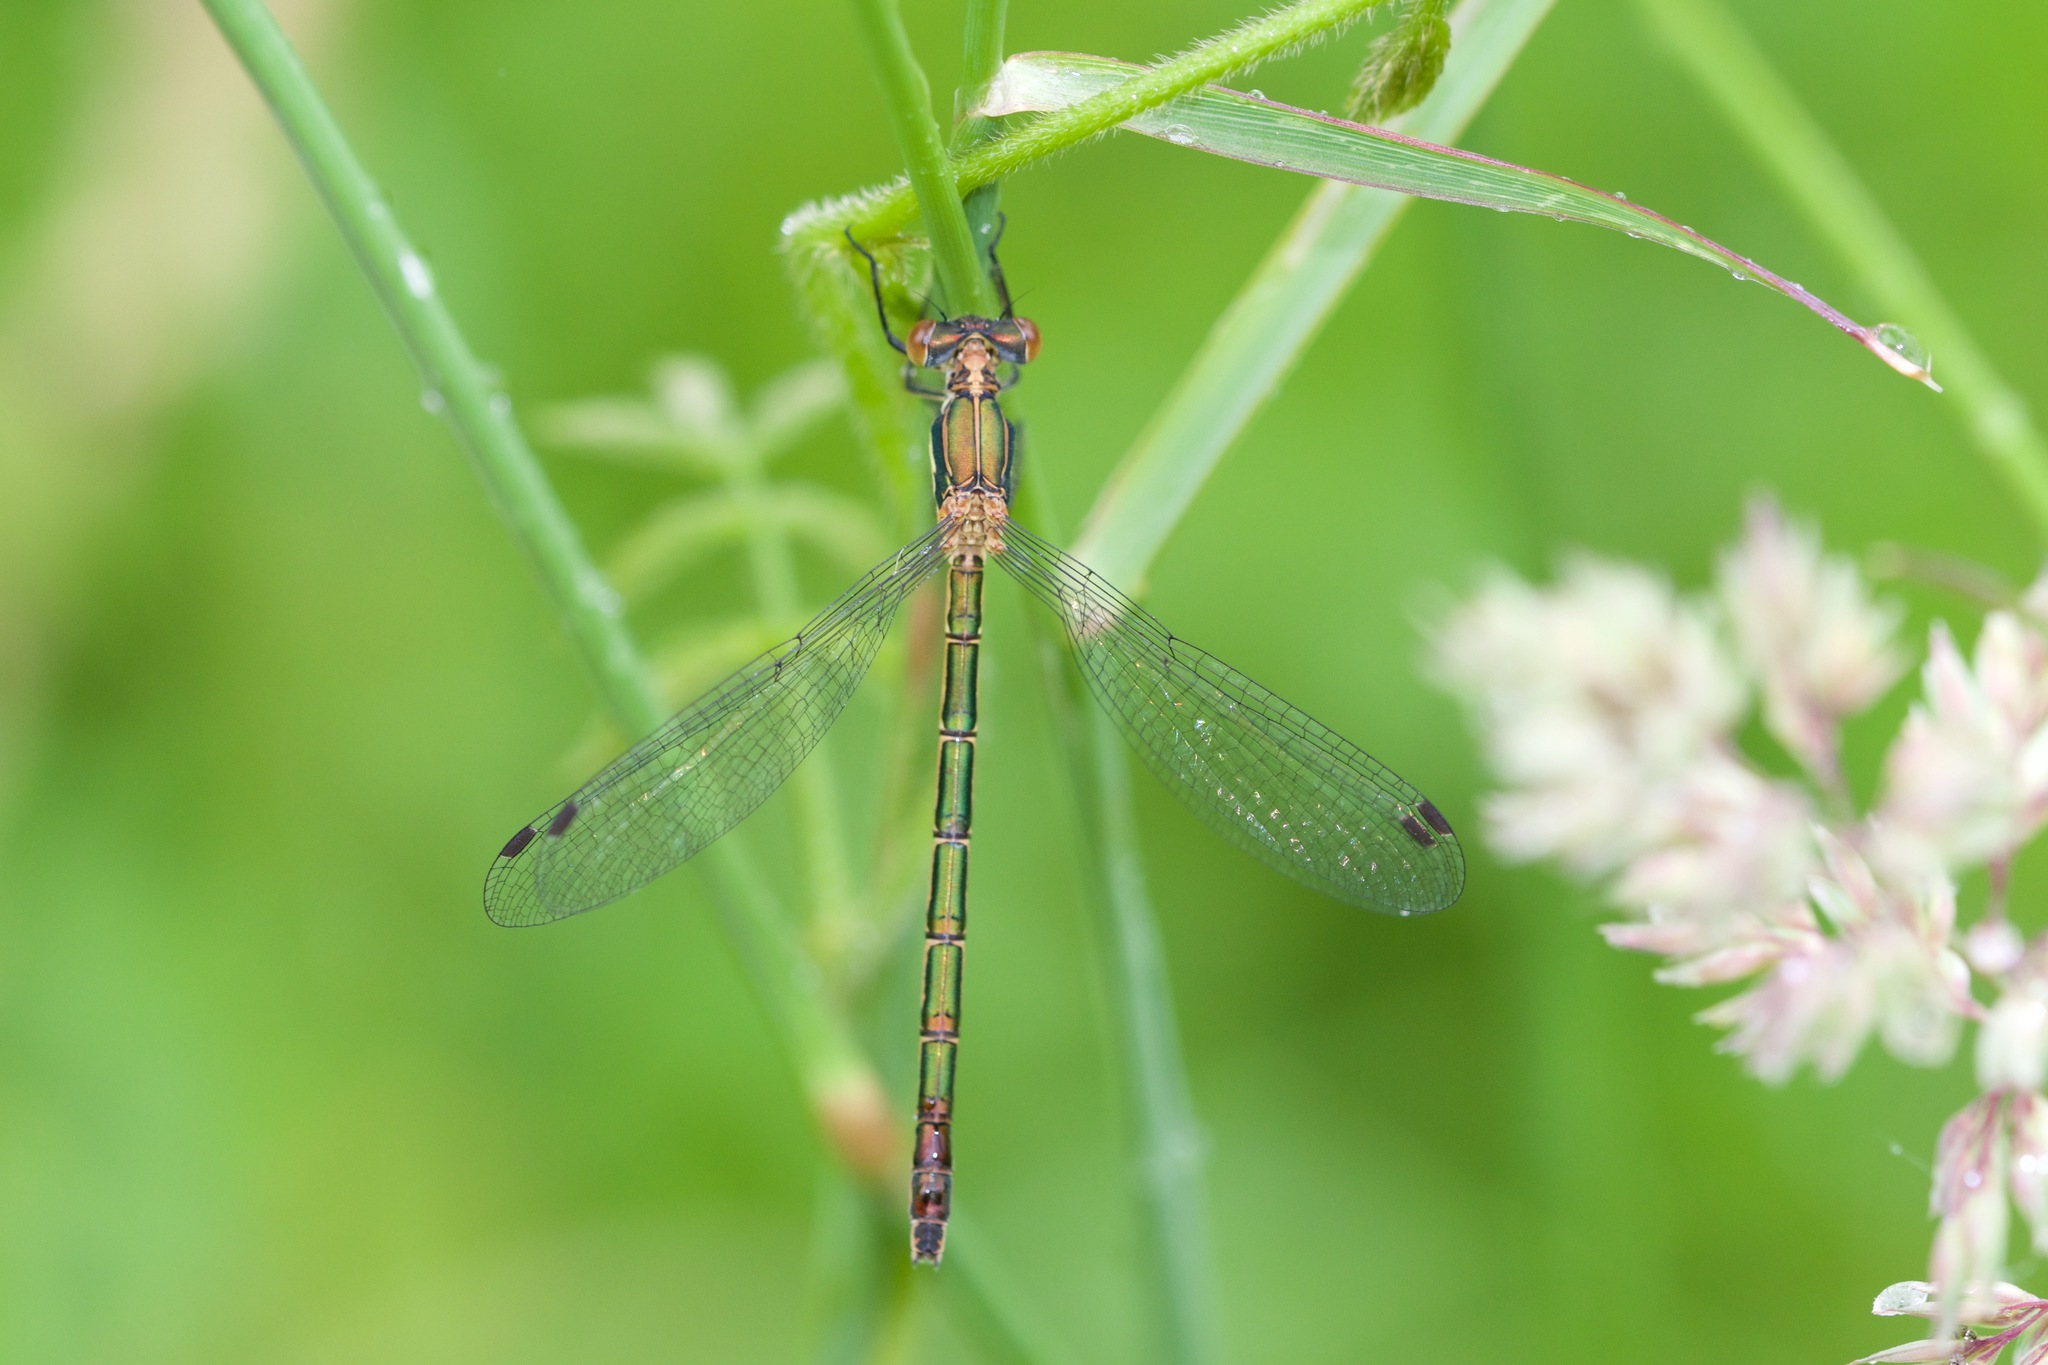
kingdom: Animalia
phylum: Arthropoda
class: Insecta
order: Odonata
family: Lestidae
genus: Lestes
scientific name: Lestes dryas
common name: Scarce emerald damselfly
